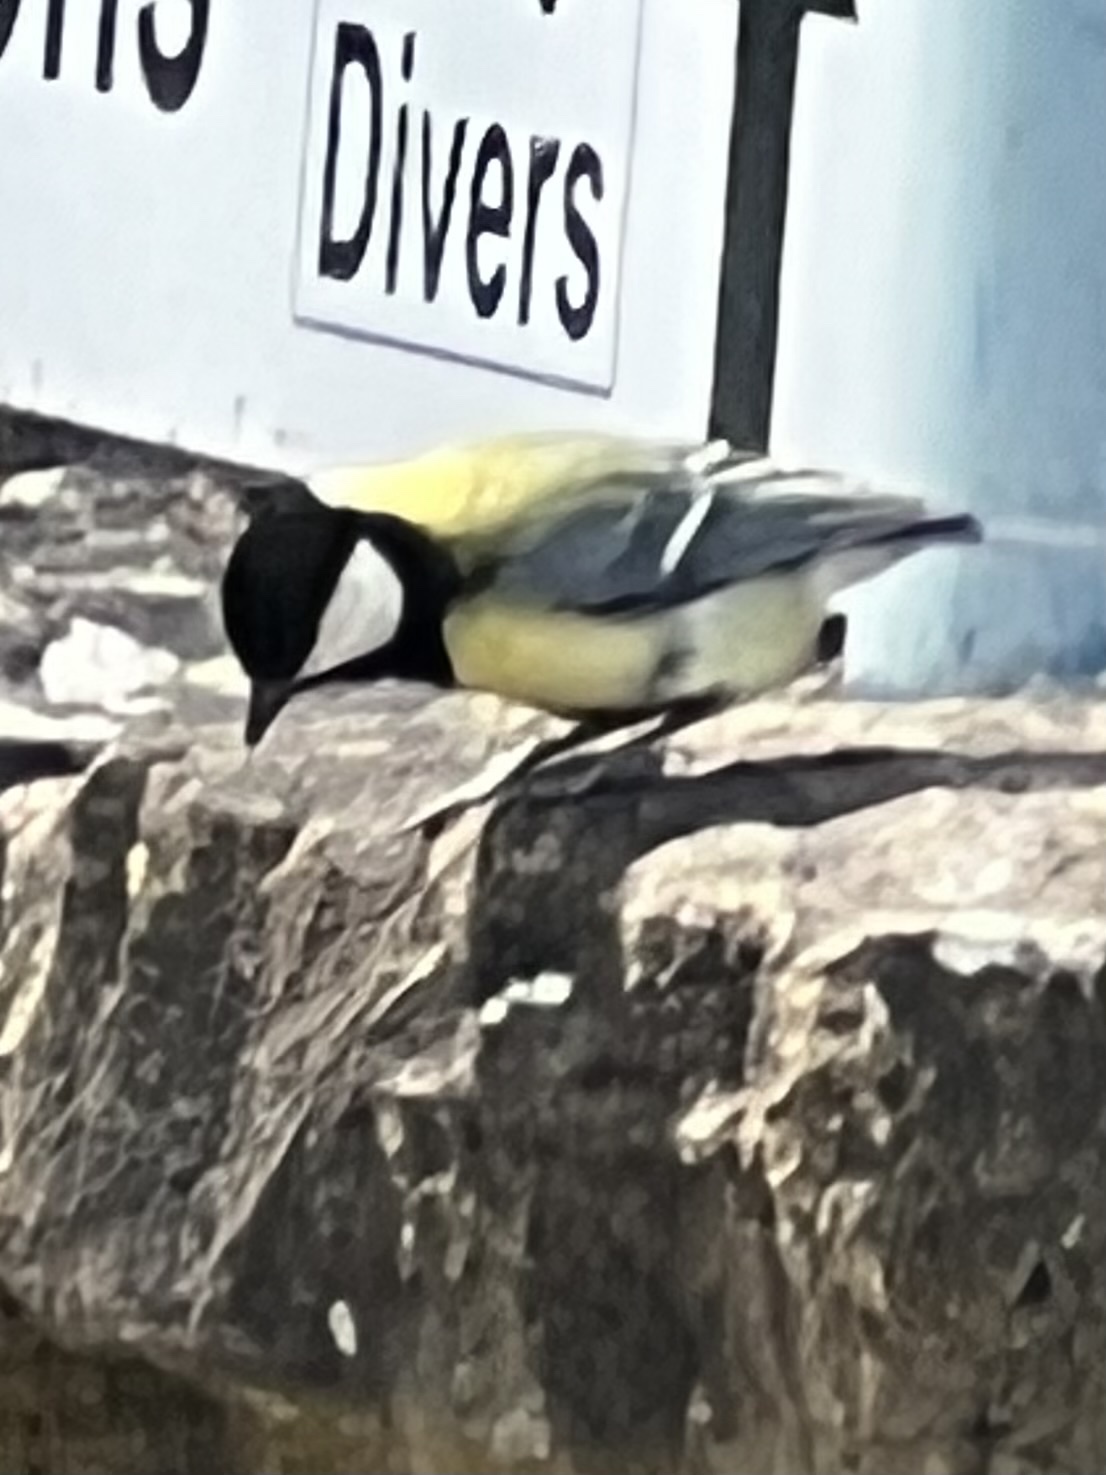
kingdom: Animalia
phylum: Chordata
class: Aves
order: Passeriformes
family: Paridae
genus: Parus
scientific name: Parus major
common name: Great tit
